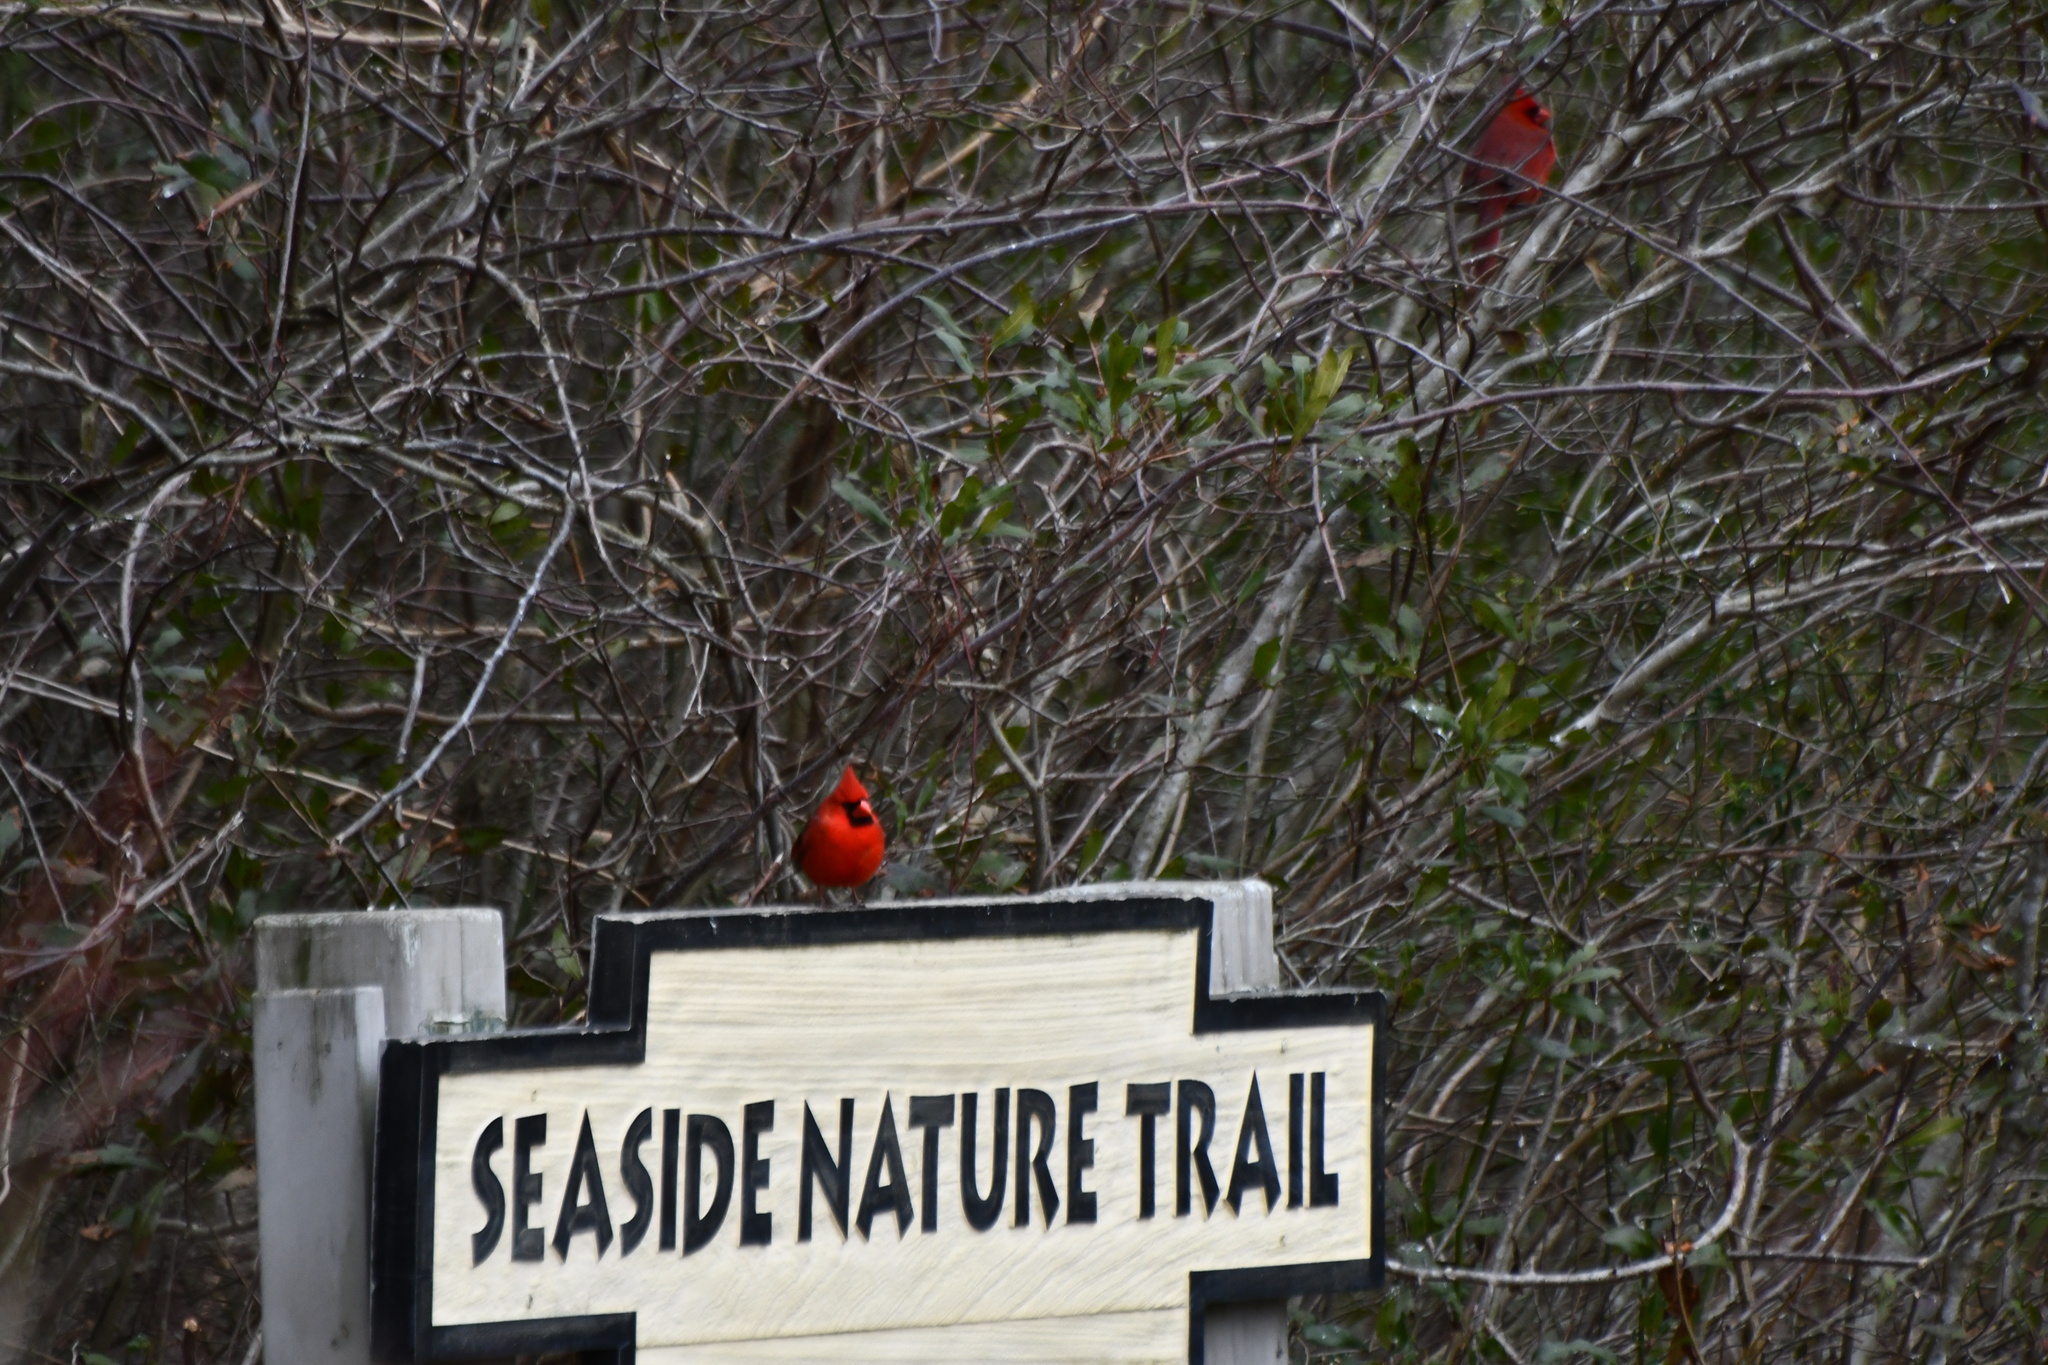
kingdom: Animalia
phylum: Chordata
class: Aves
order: Passeriformes
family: Cardinalidae
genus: Cardinalis
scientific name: Cardinalis cardinalis
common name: Northern cardinal
